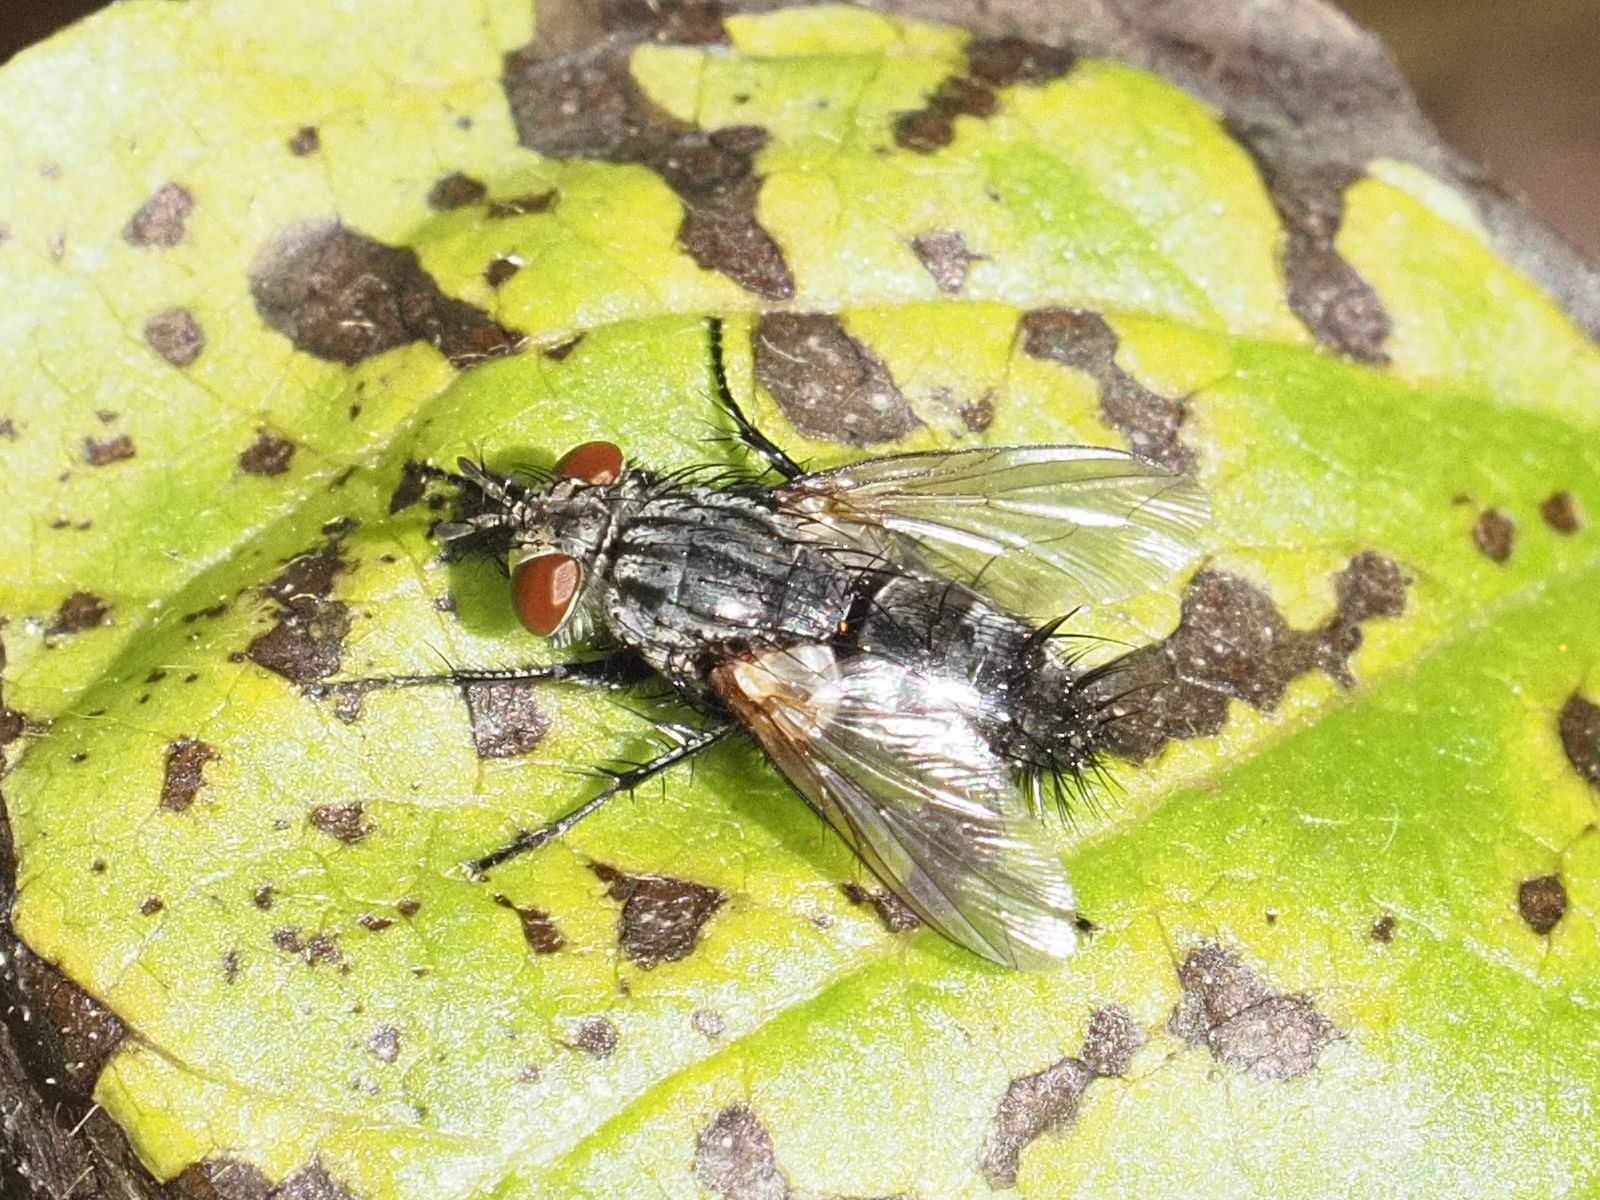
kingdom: Animalia
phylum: Arthropoda
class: Insecta
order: Diptera
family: Tachinidae
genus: Voria
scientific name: Voria ruralis
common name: Parasitic fly
